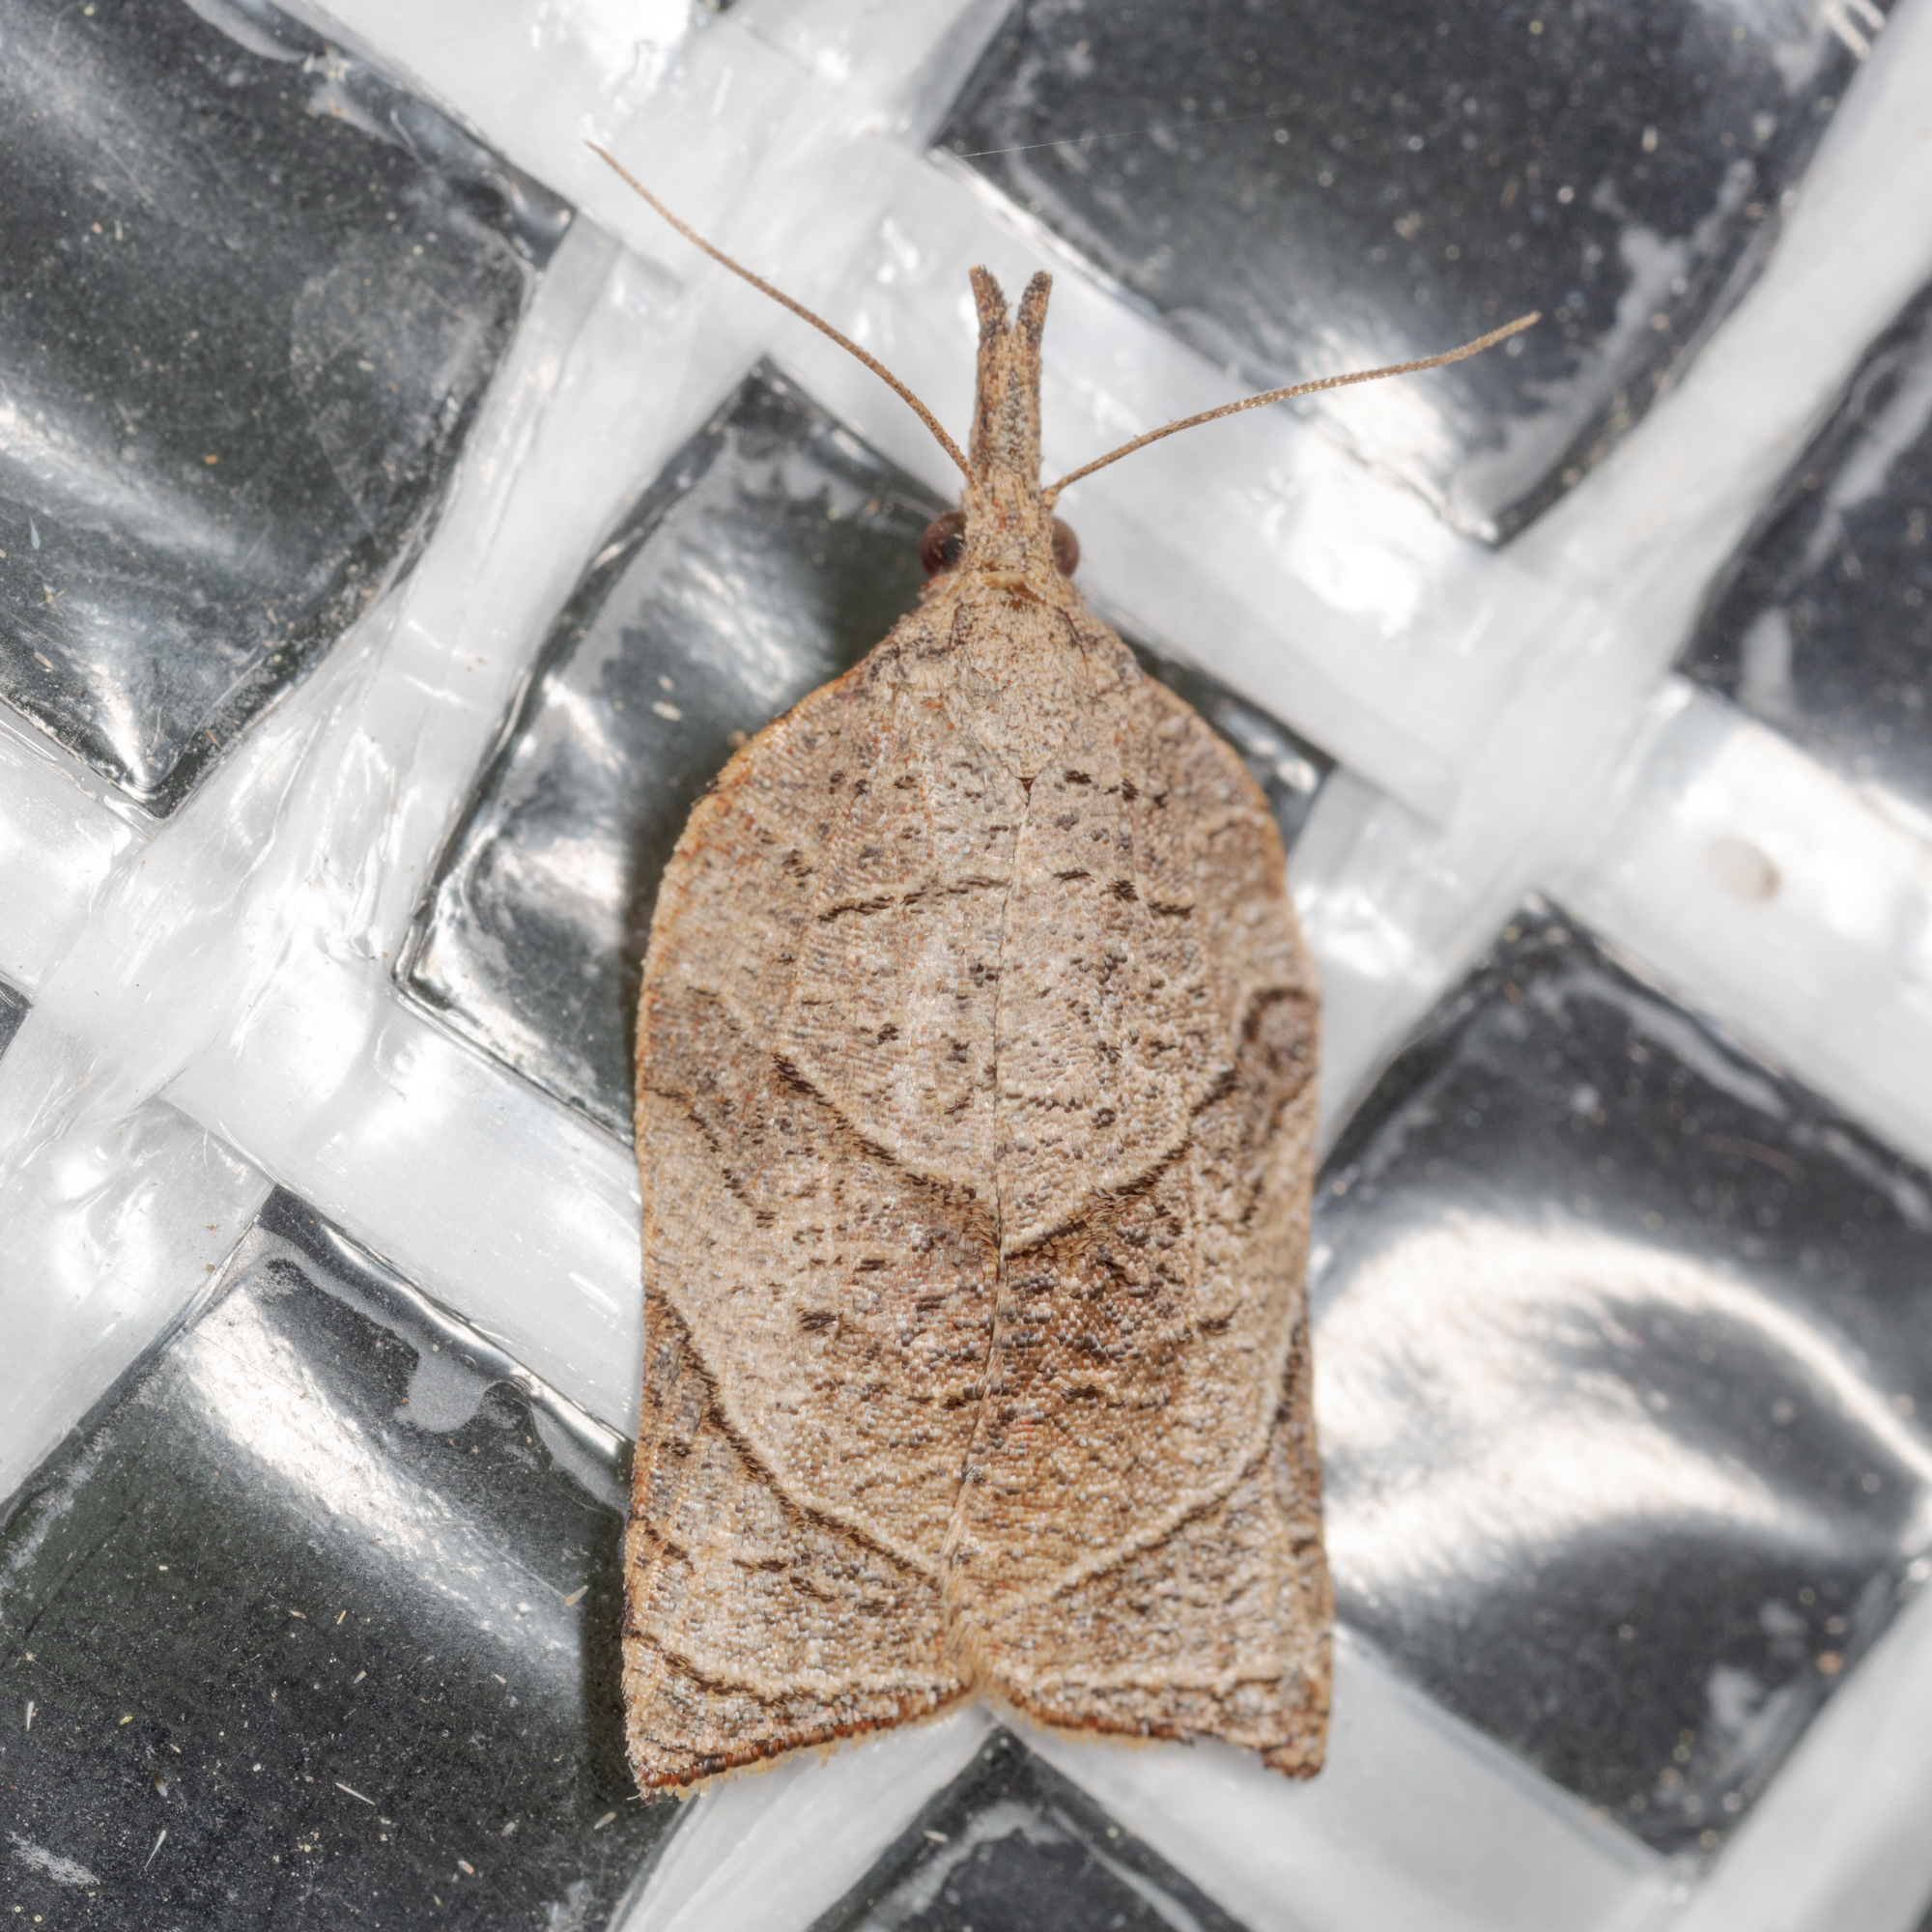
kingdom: Animalia
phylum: Arthropoda
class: Insecta
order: Lepidoptera
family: Tortricidae
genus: Platynota
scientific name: Platynota rostrana
